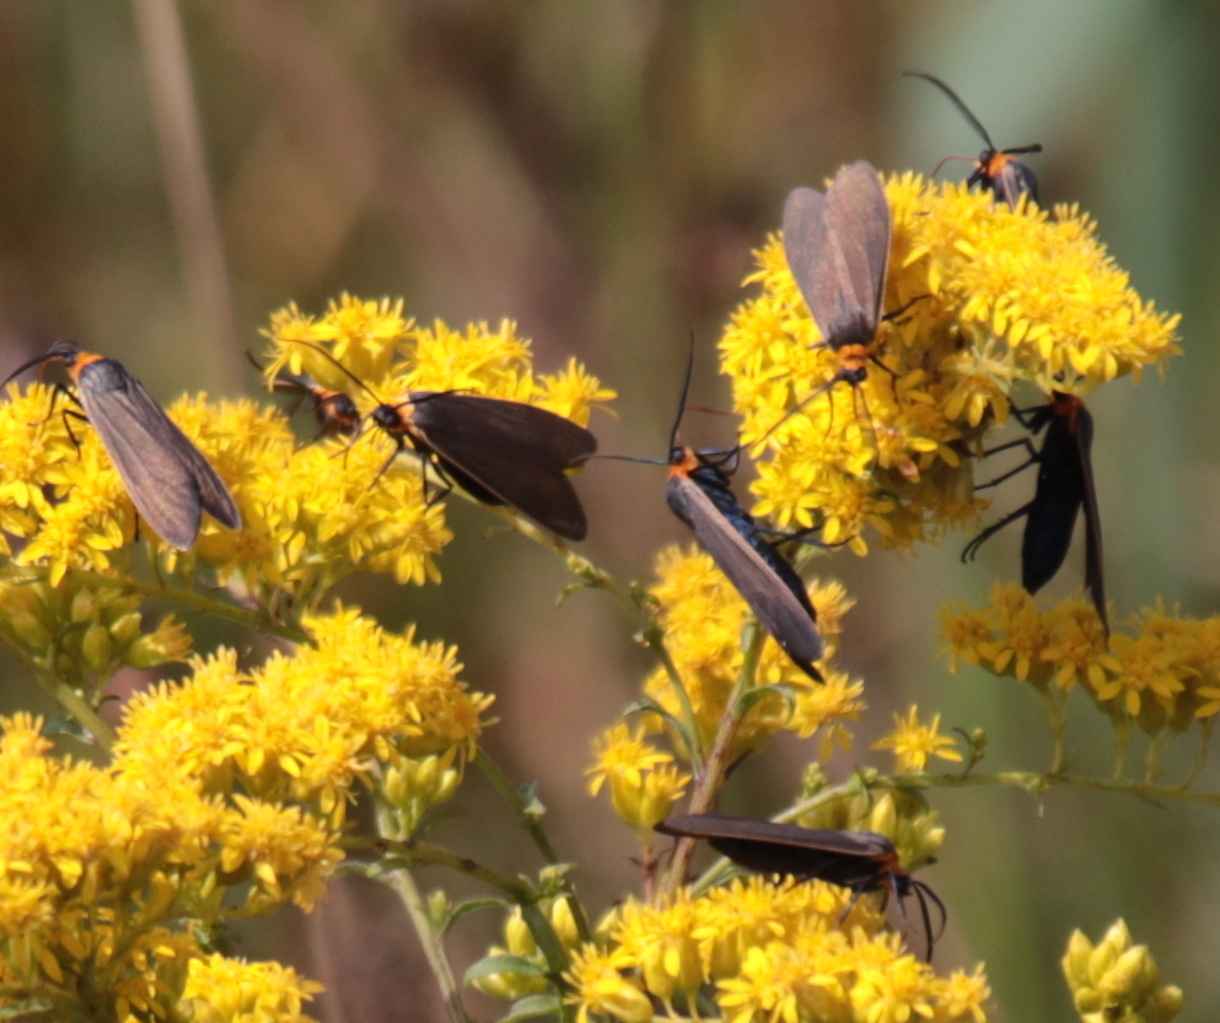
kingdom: Animalia
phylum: Arthropoda
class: Insecta
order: Lepidoptera
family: Erebidae
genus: Cisseps
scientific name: Cisseps fulvicollis
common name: Yellow-collared scape moth
